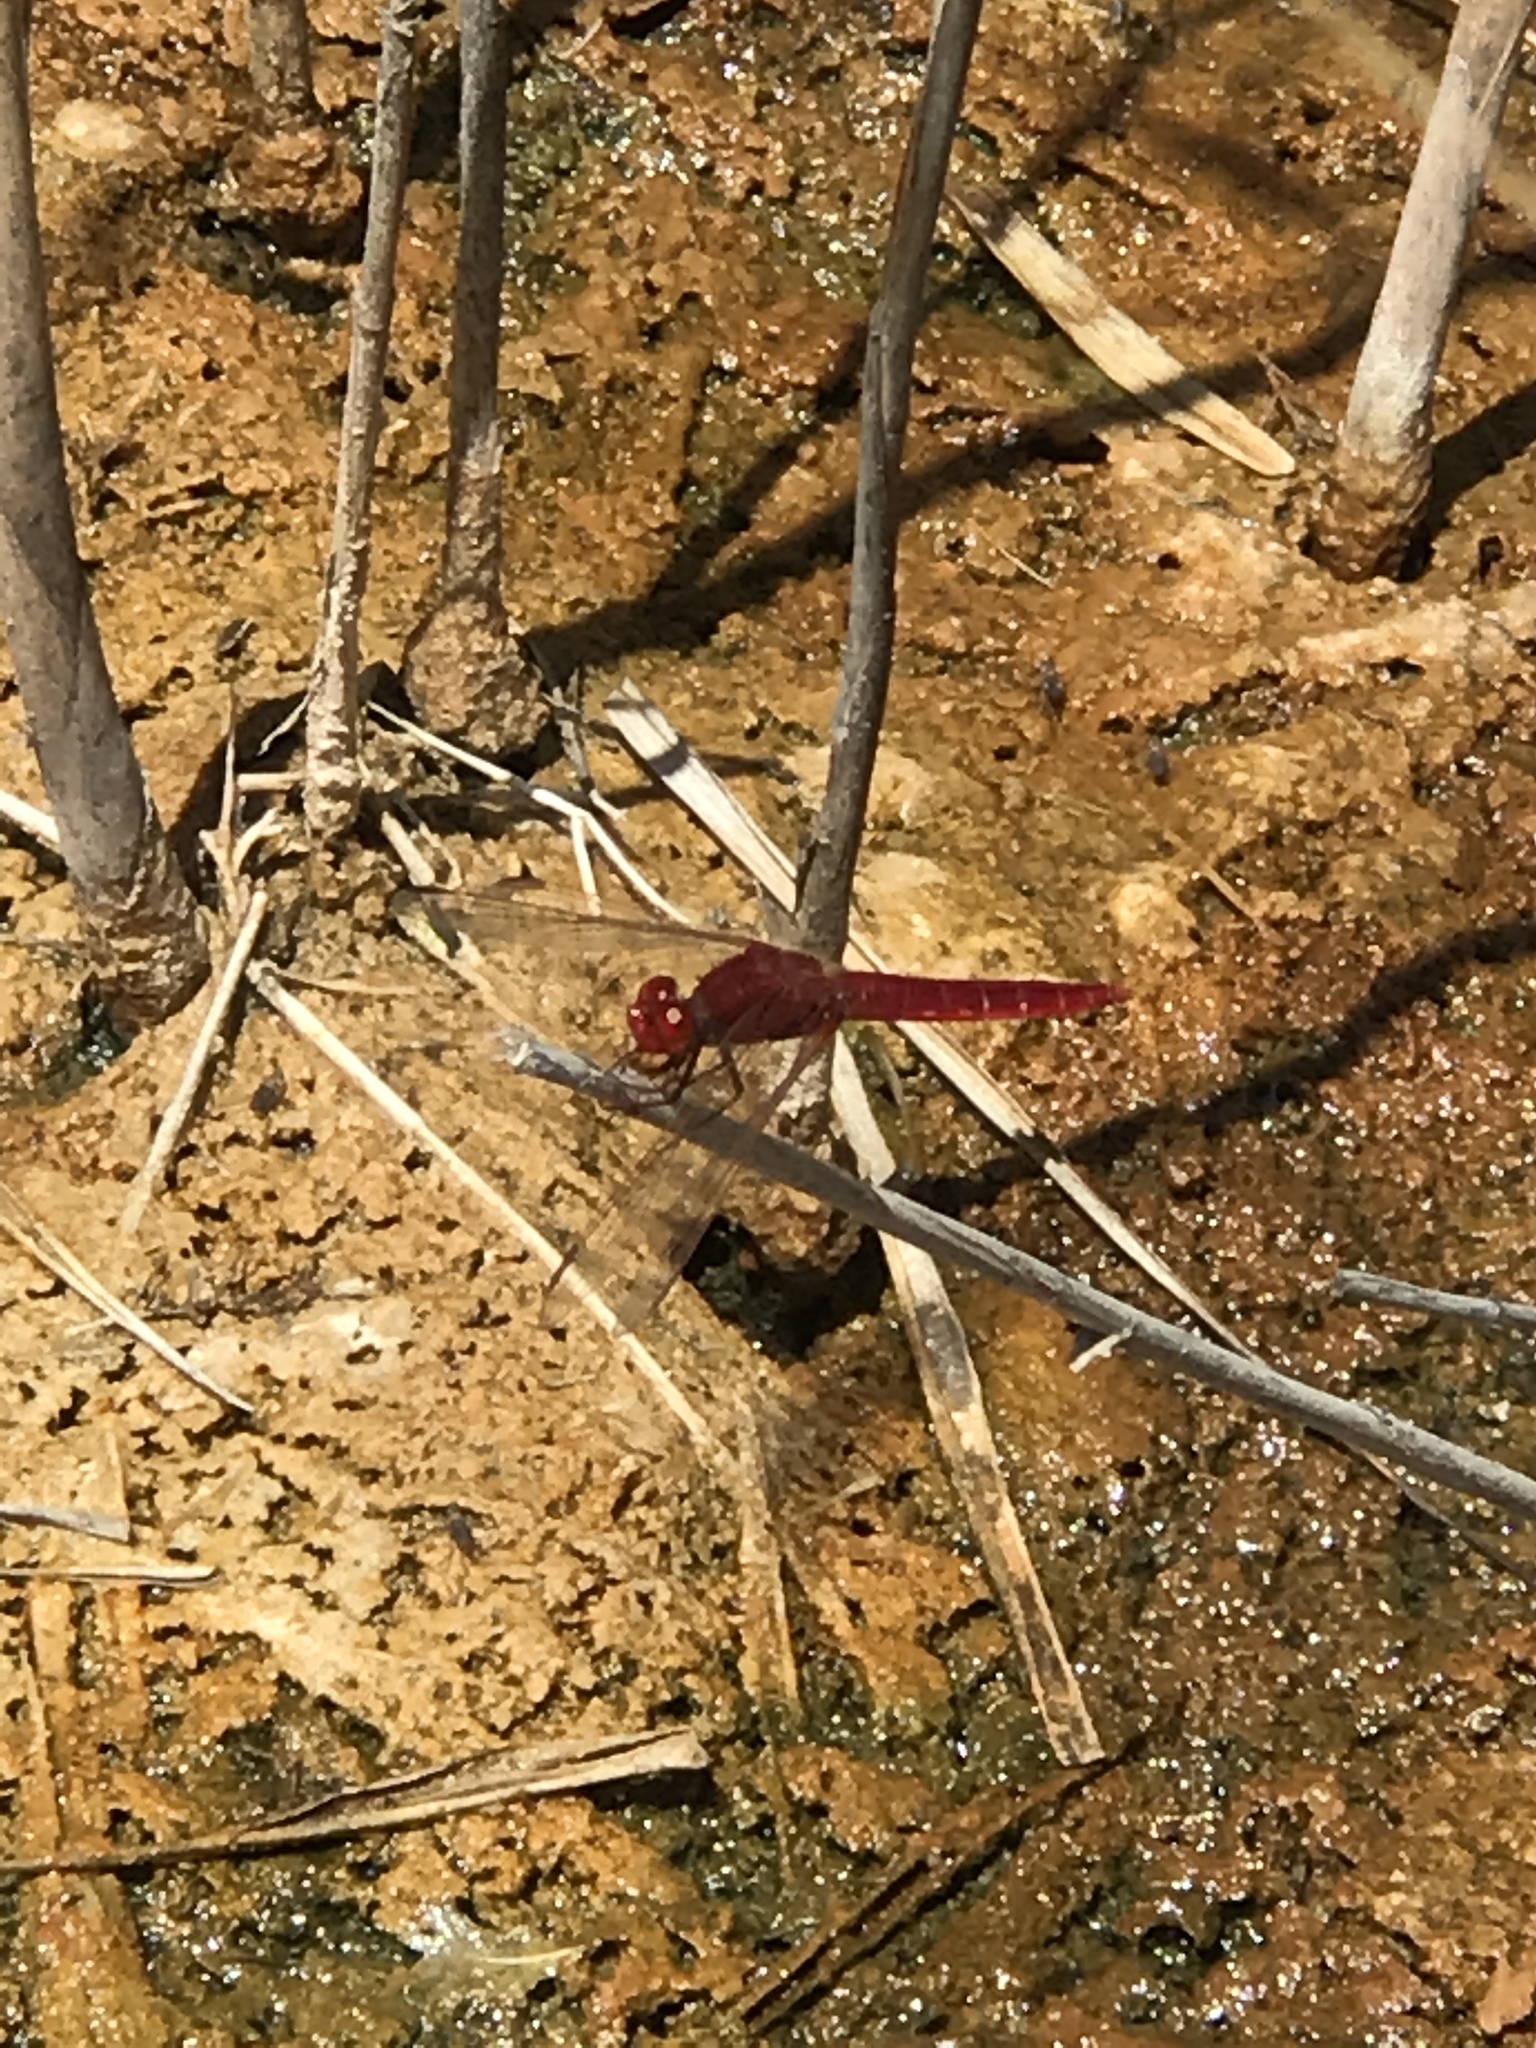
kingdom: Animalia
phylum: Arthropoda
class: Insecta
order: Odonata
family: Libellulidae
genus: Crocothemis
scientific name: Crocothemis erythraea
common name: Scarlet dragonfly
